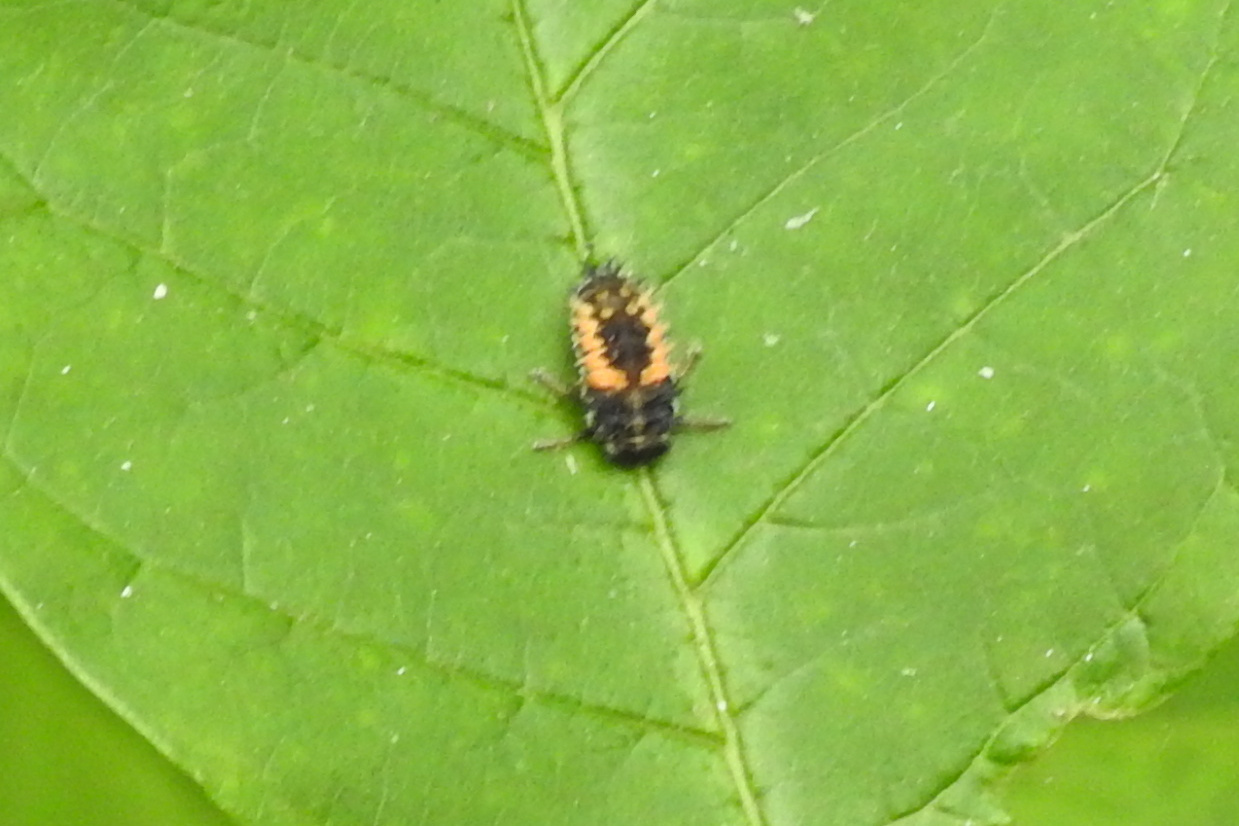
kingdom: Animalia
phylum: Arthropoda
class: Insecta
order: Coleoptera
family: Coccinellidae
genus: Harmonia
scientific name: Harmonia axyridis
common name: Harlequin ladybird
